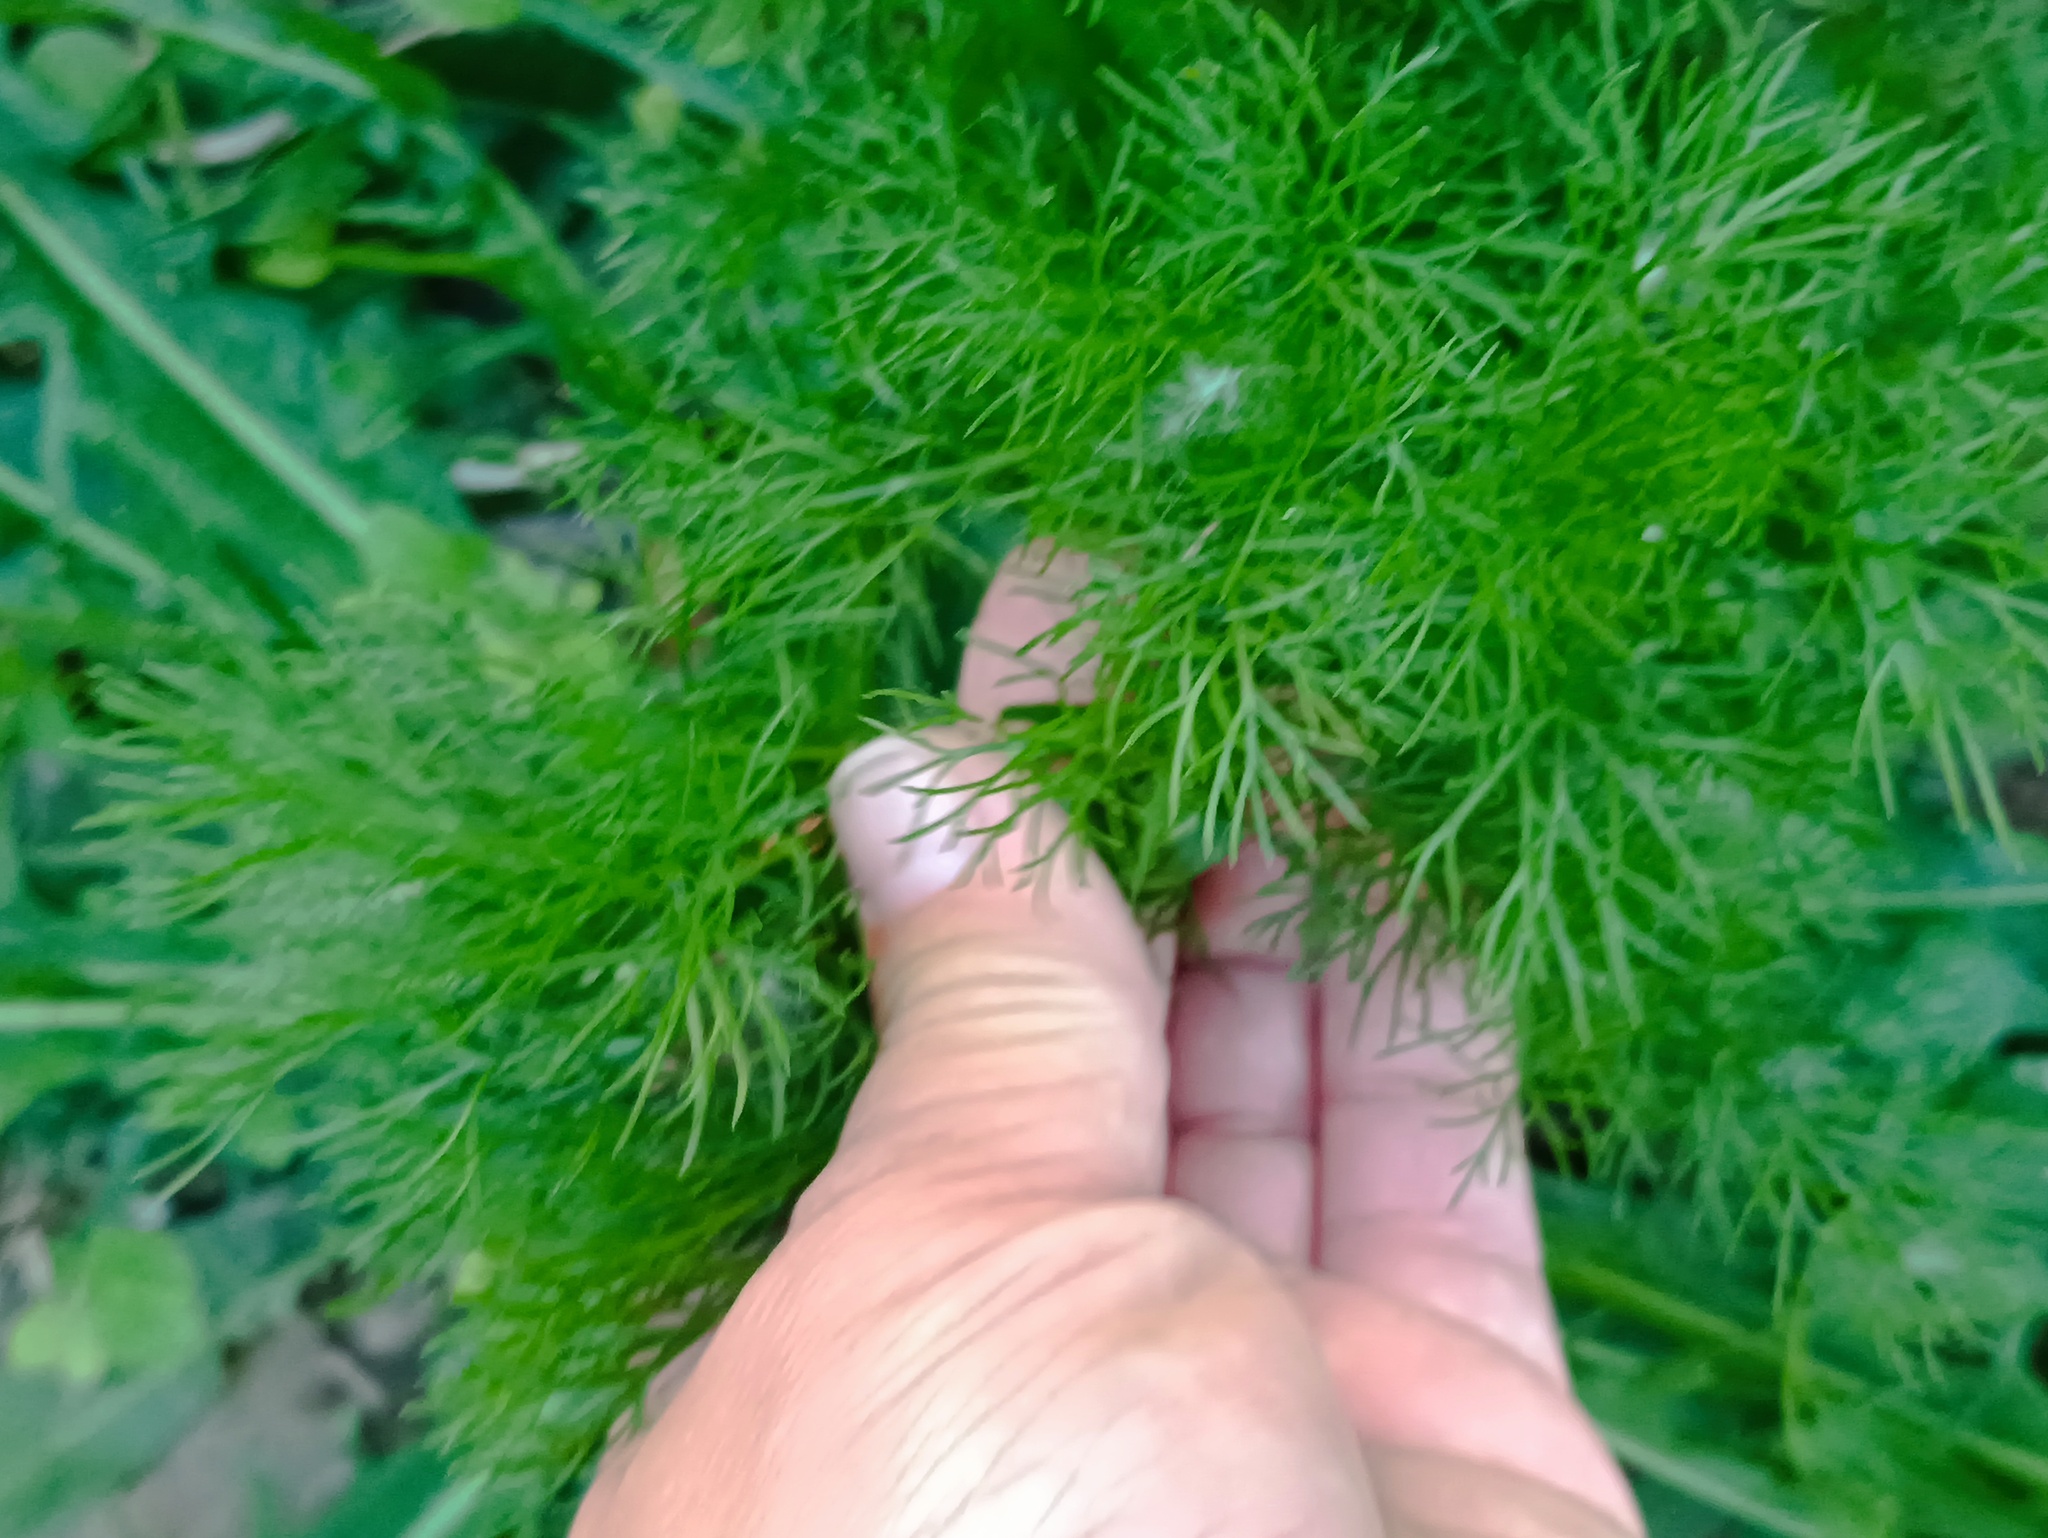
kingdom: Plantae
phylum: Tracheophyta
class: Magnoliopsida
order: Asterales
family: Asteraceae
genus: Tripleurospermum
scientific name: Tripleurospermum inodorum
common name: Scentless mayweed
